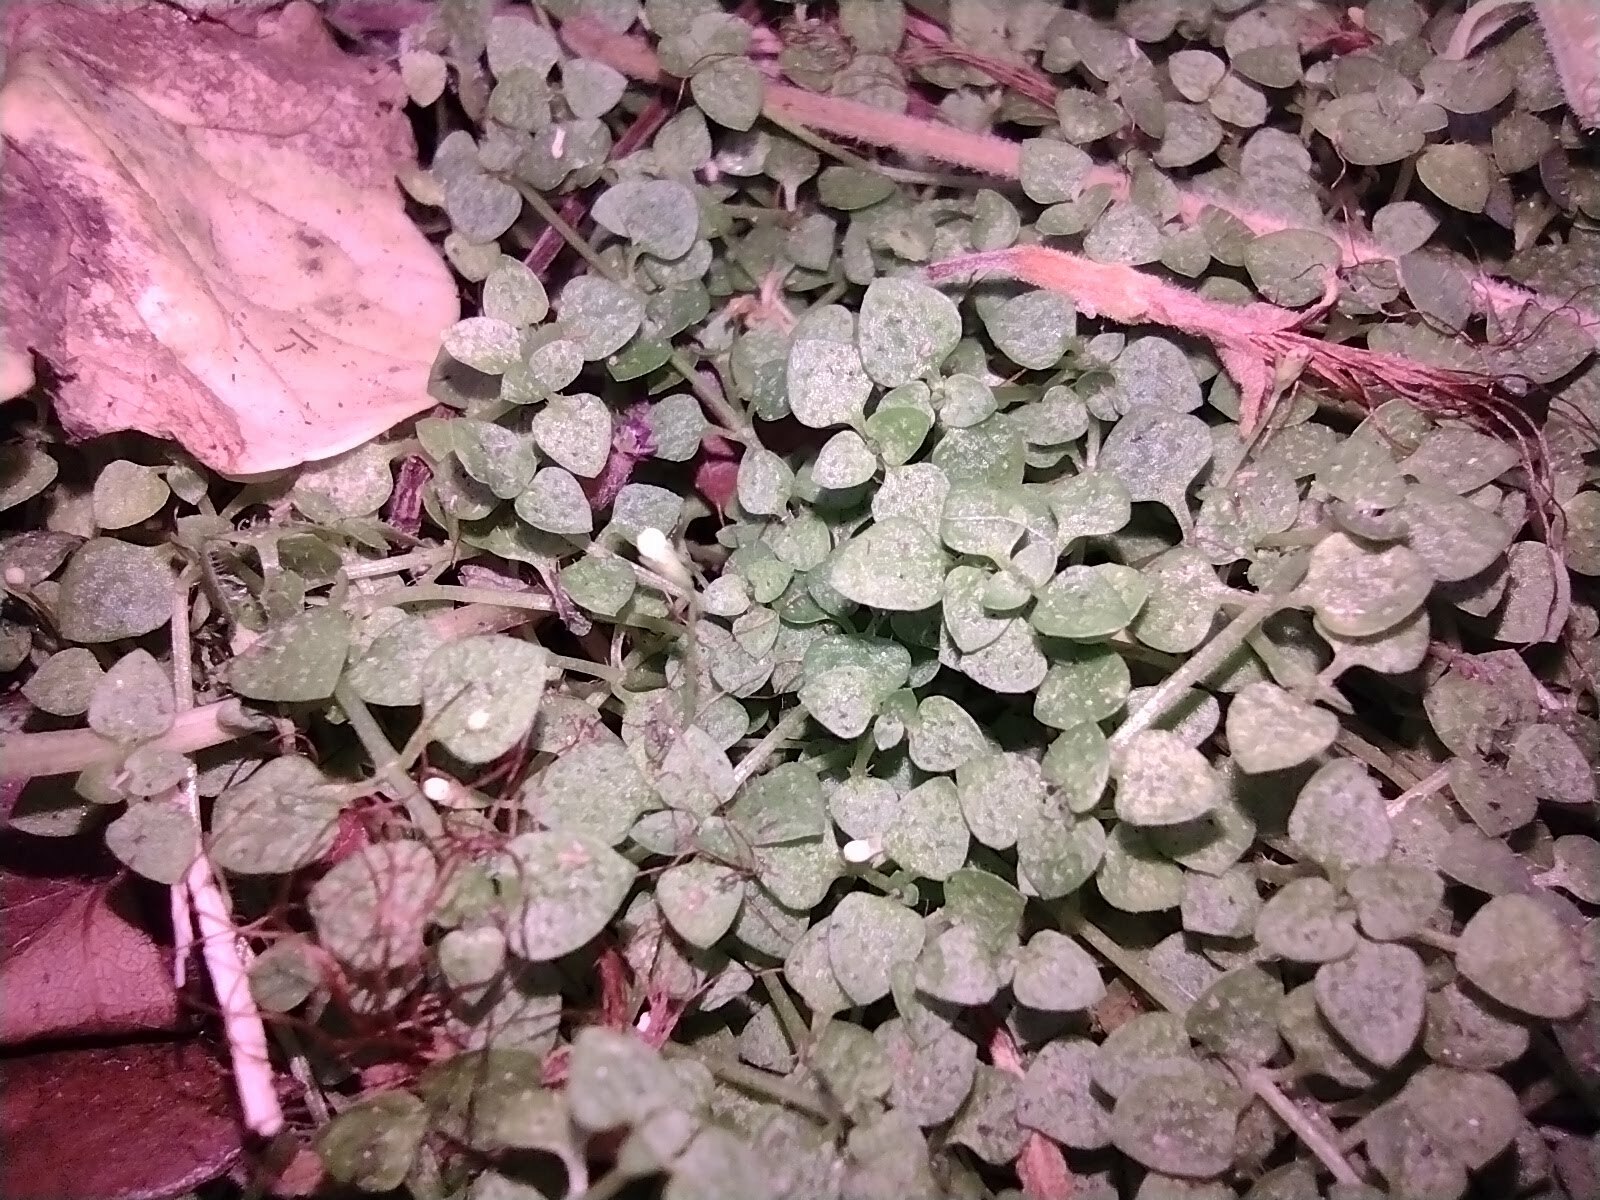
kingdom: Plantae
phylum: Tracheophyta
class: Magnoliopsida
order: Gentianales
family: Rubiaceae
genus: Oldenlandiopsis
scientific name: Oldenlandiopsis callitrichoides
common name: Creeping-bluet
